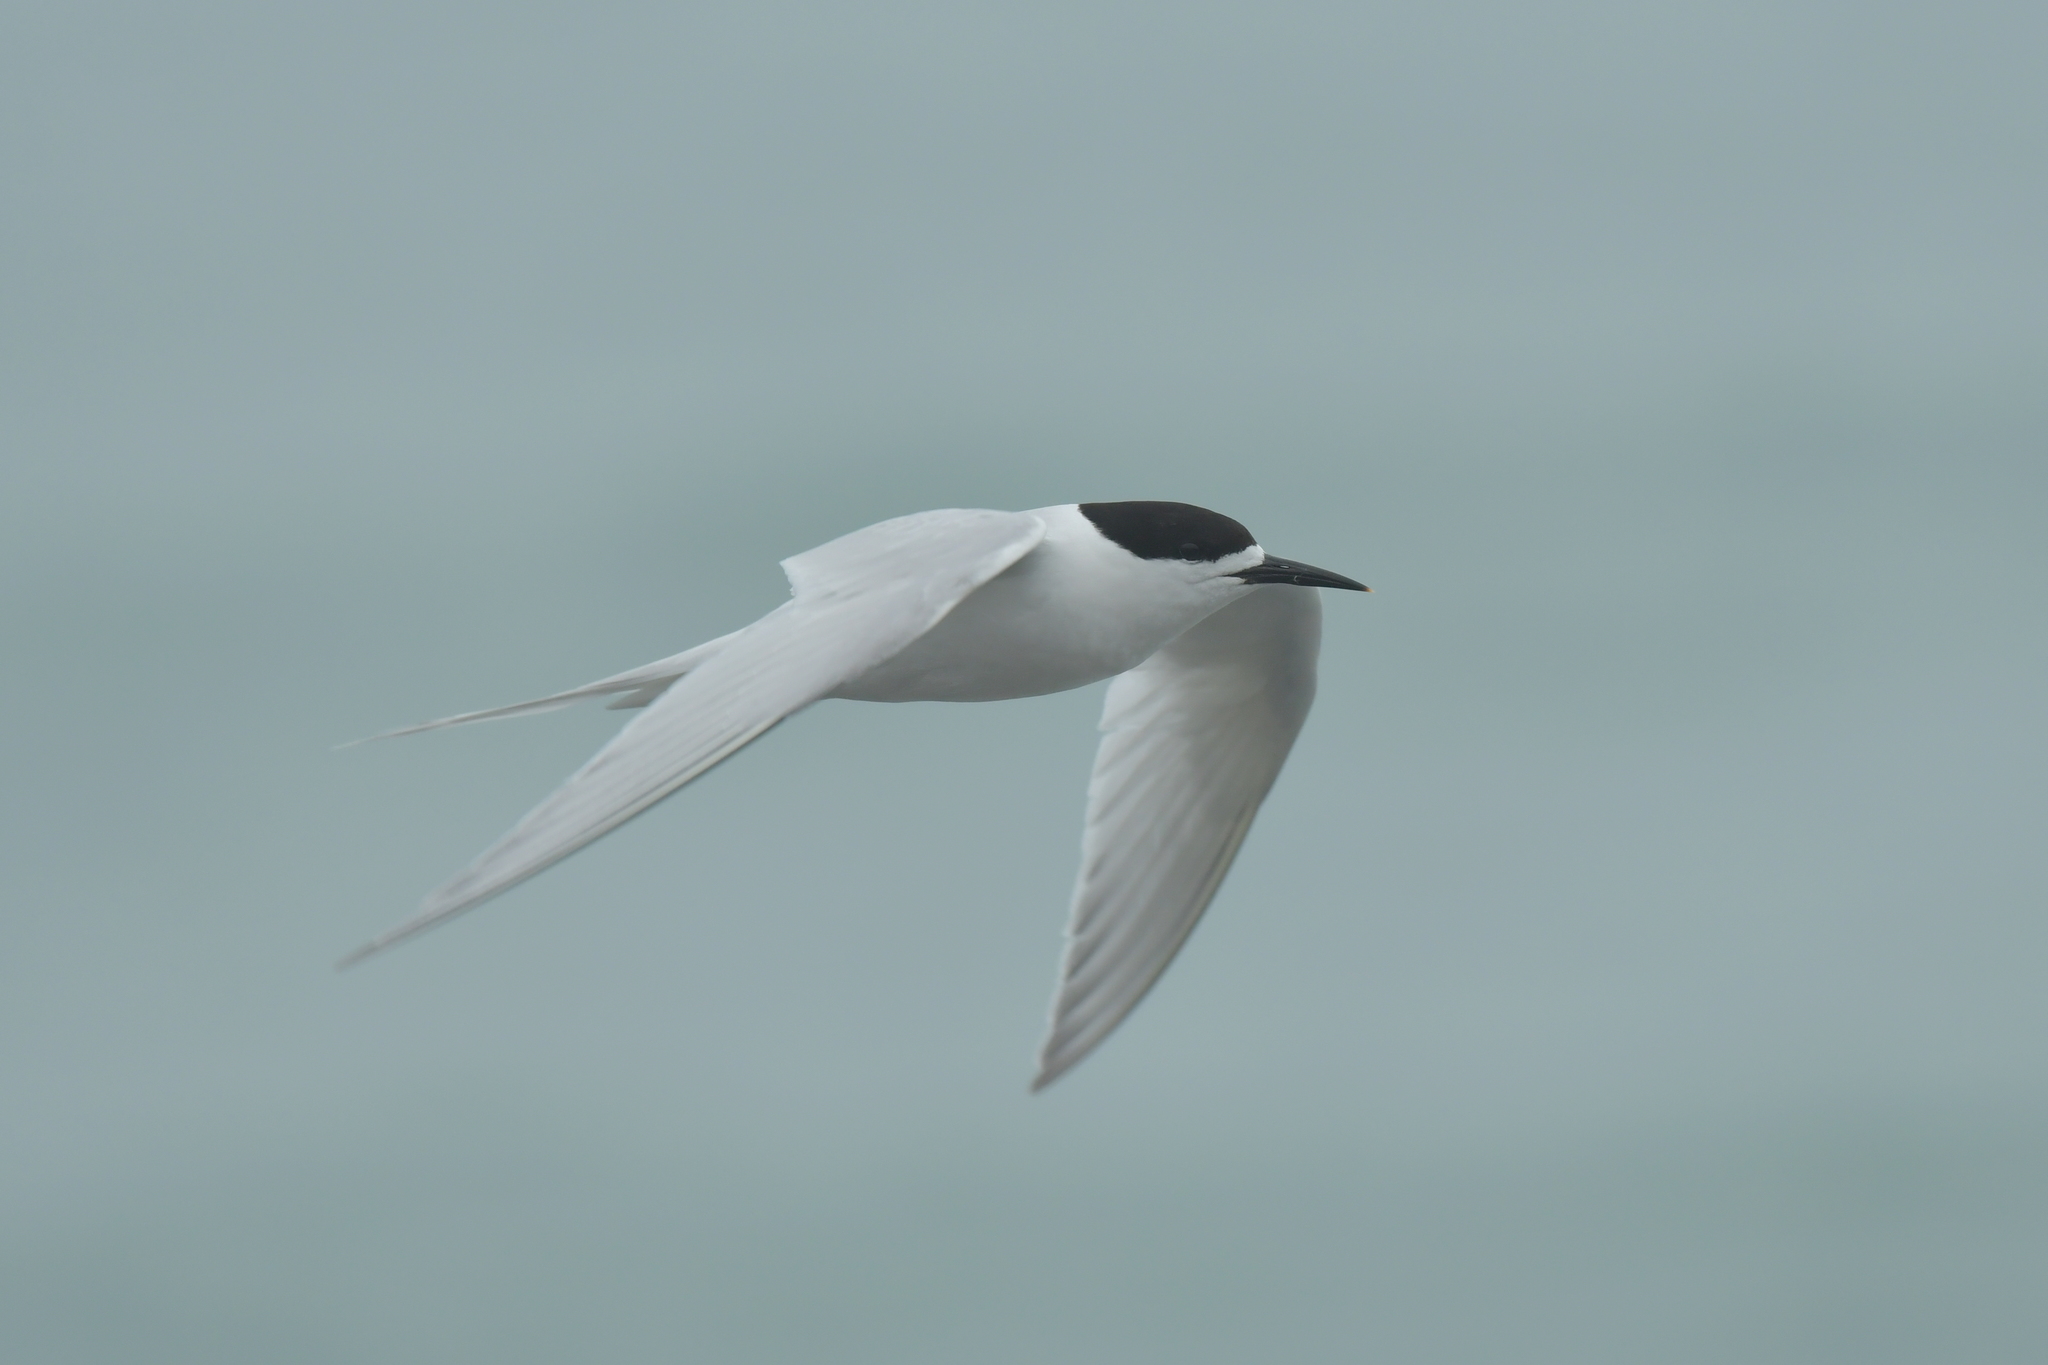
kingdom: Animalia
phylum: Chordata
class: Aves
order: Charadriiformes
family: Laridae
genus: Sterna
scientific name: Sterna striata
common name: White-fronted tern
